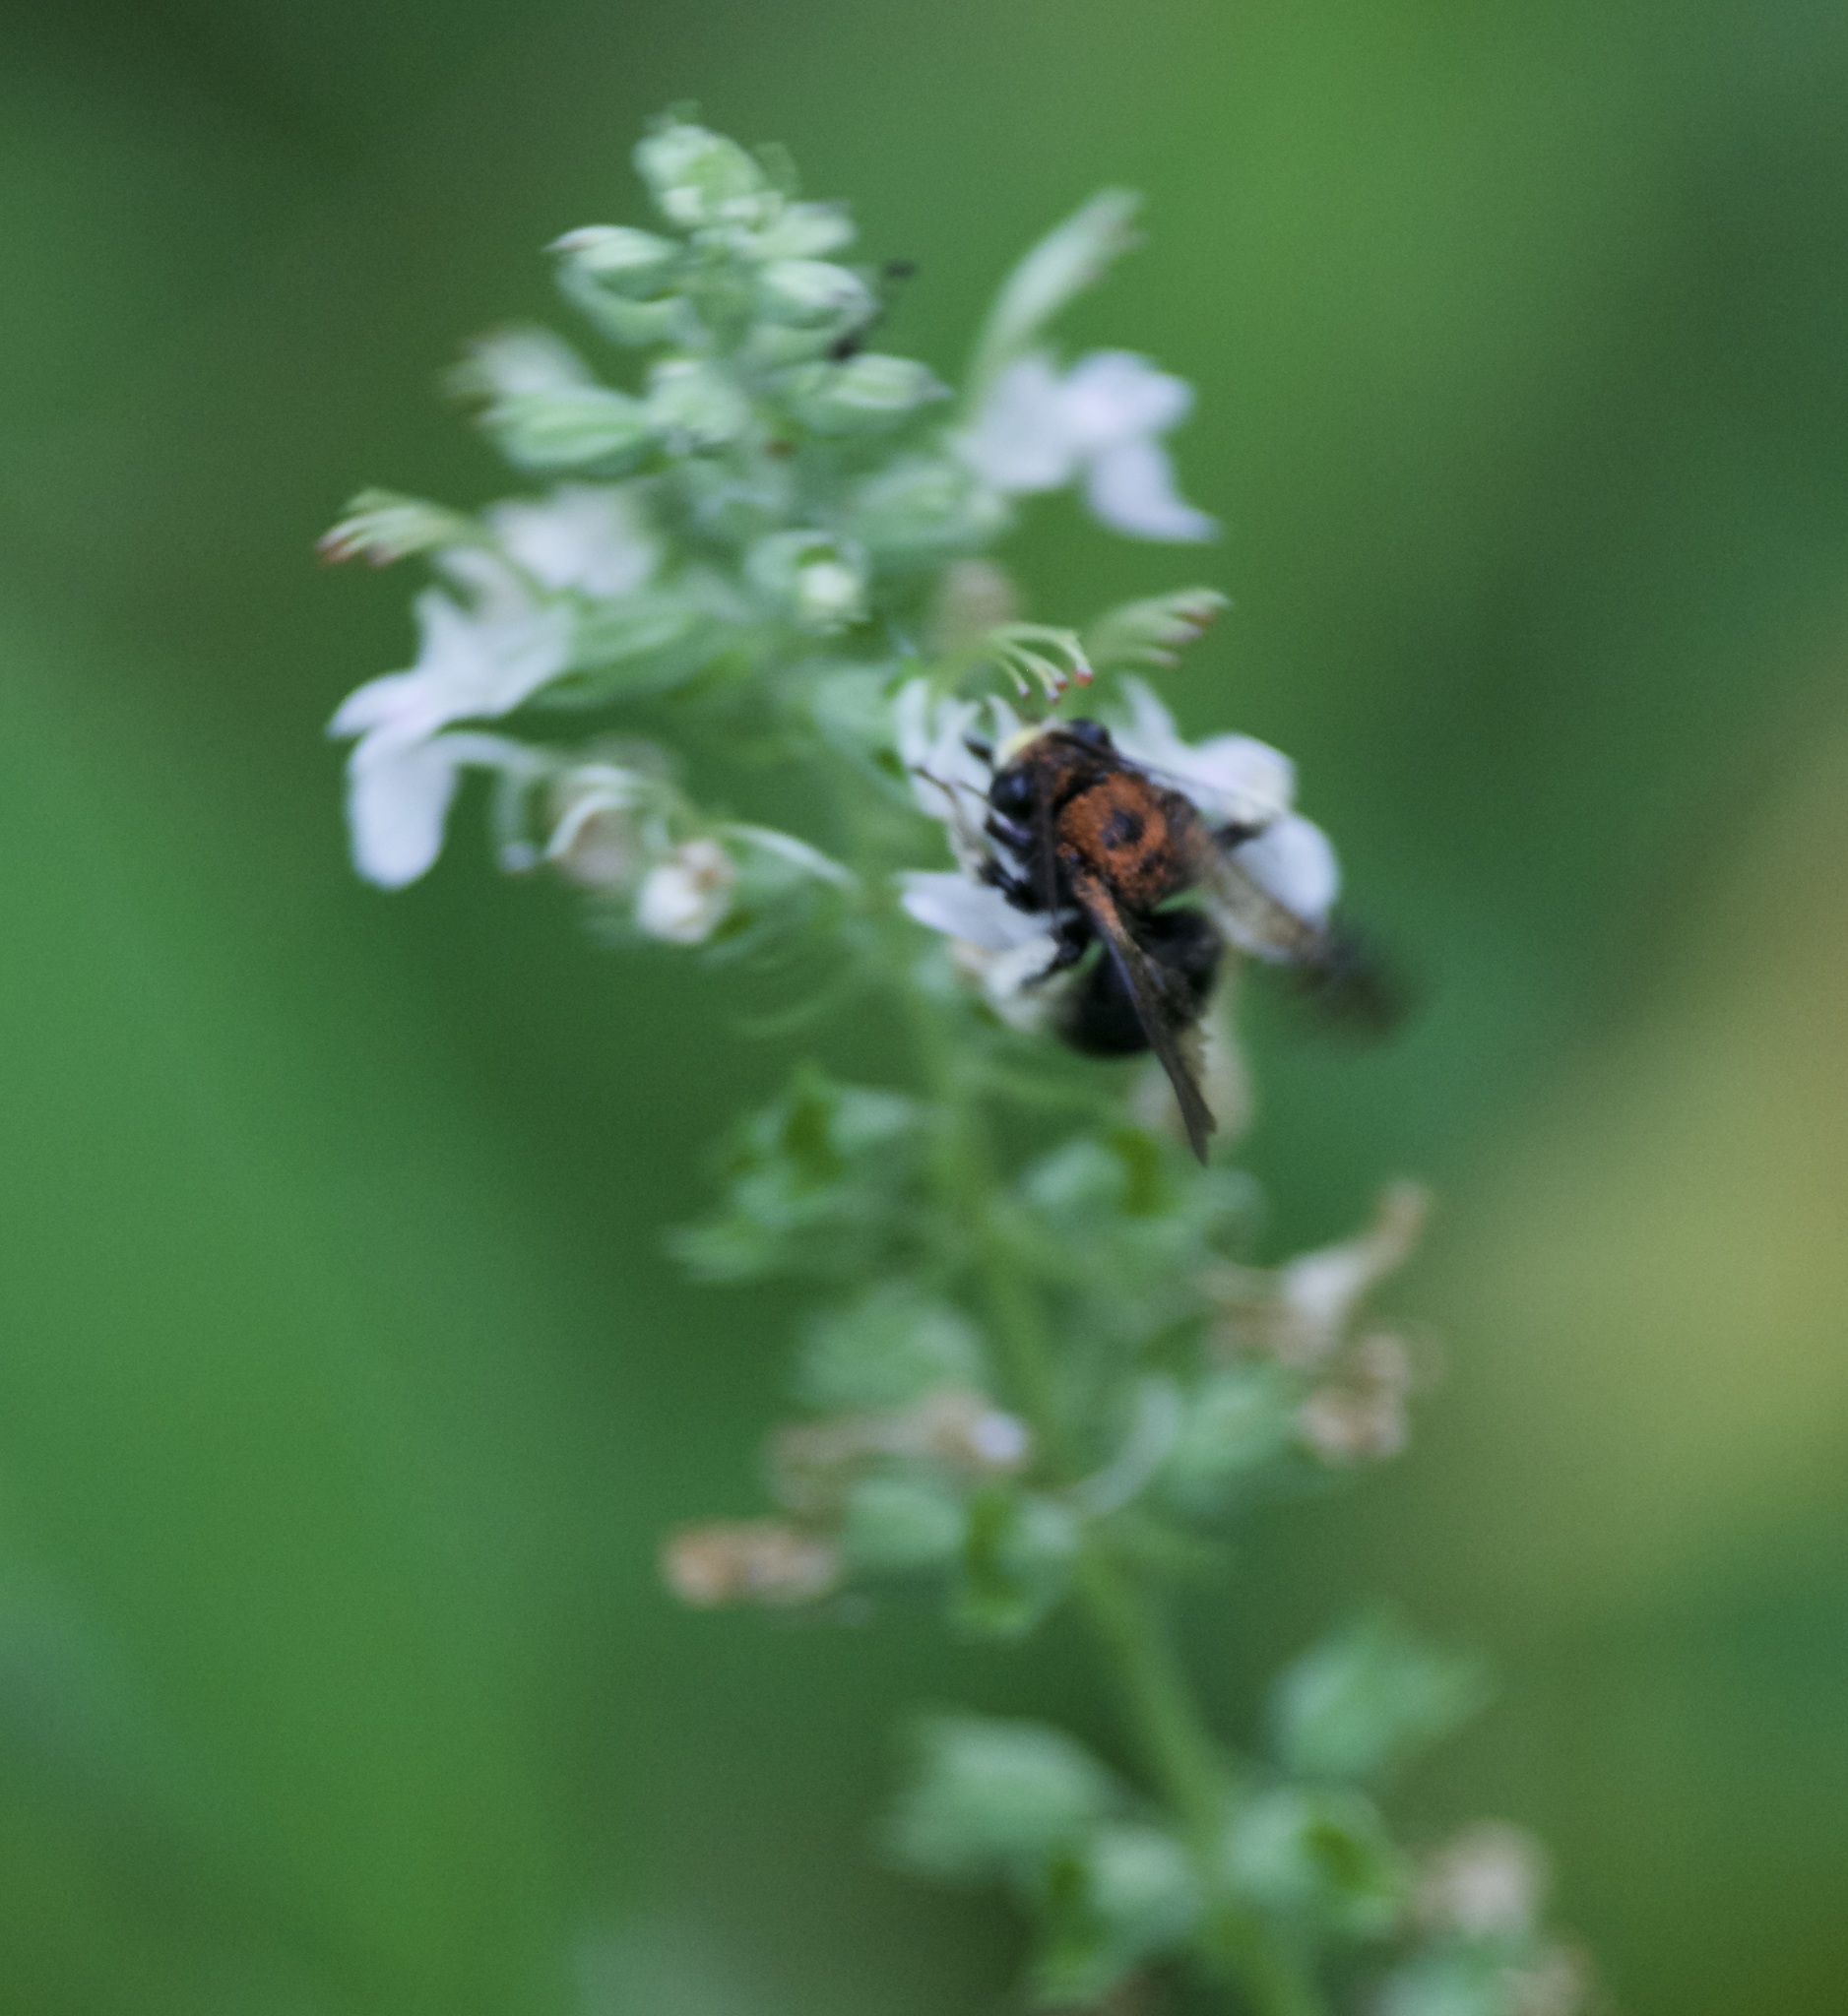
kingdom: Animalia
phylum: Arthropoda
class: Insecta
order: Hymenoptera
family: Apidae
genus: Melissodes
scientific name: Melissodes bimaculatus
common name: Two-spotted long-horned bee
